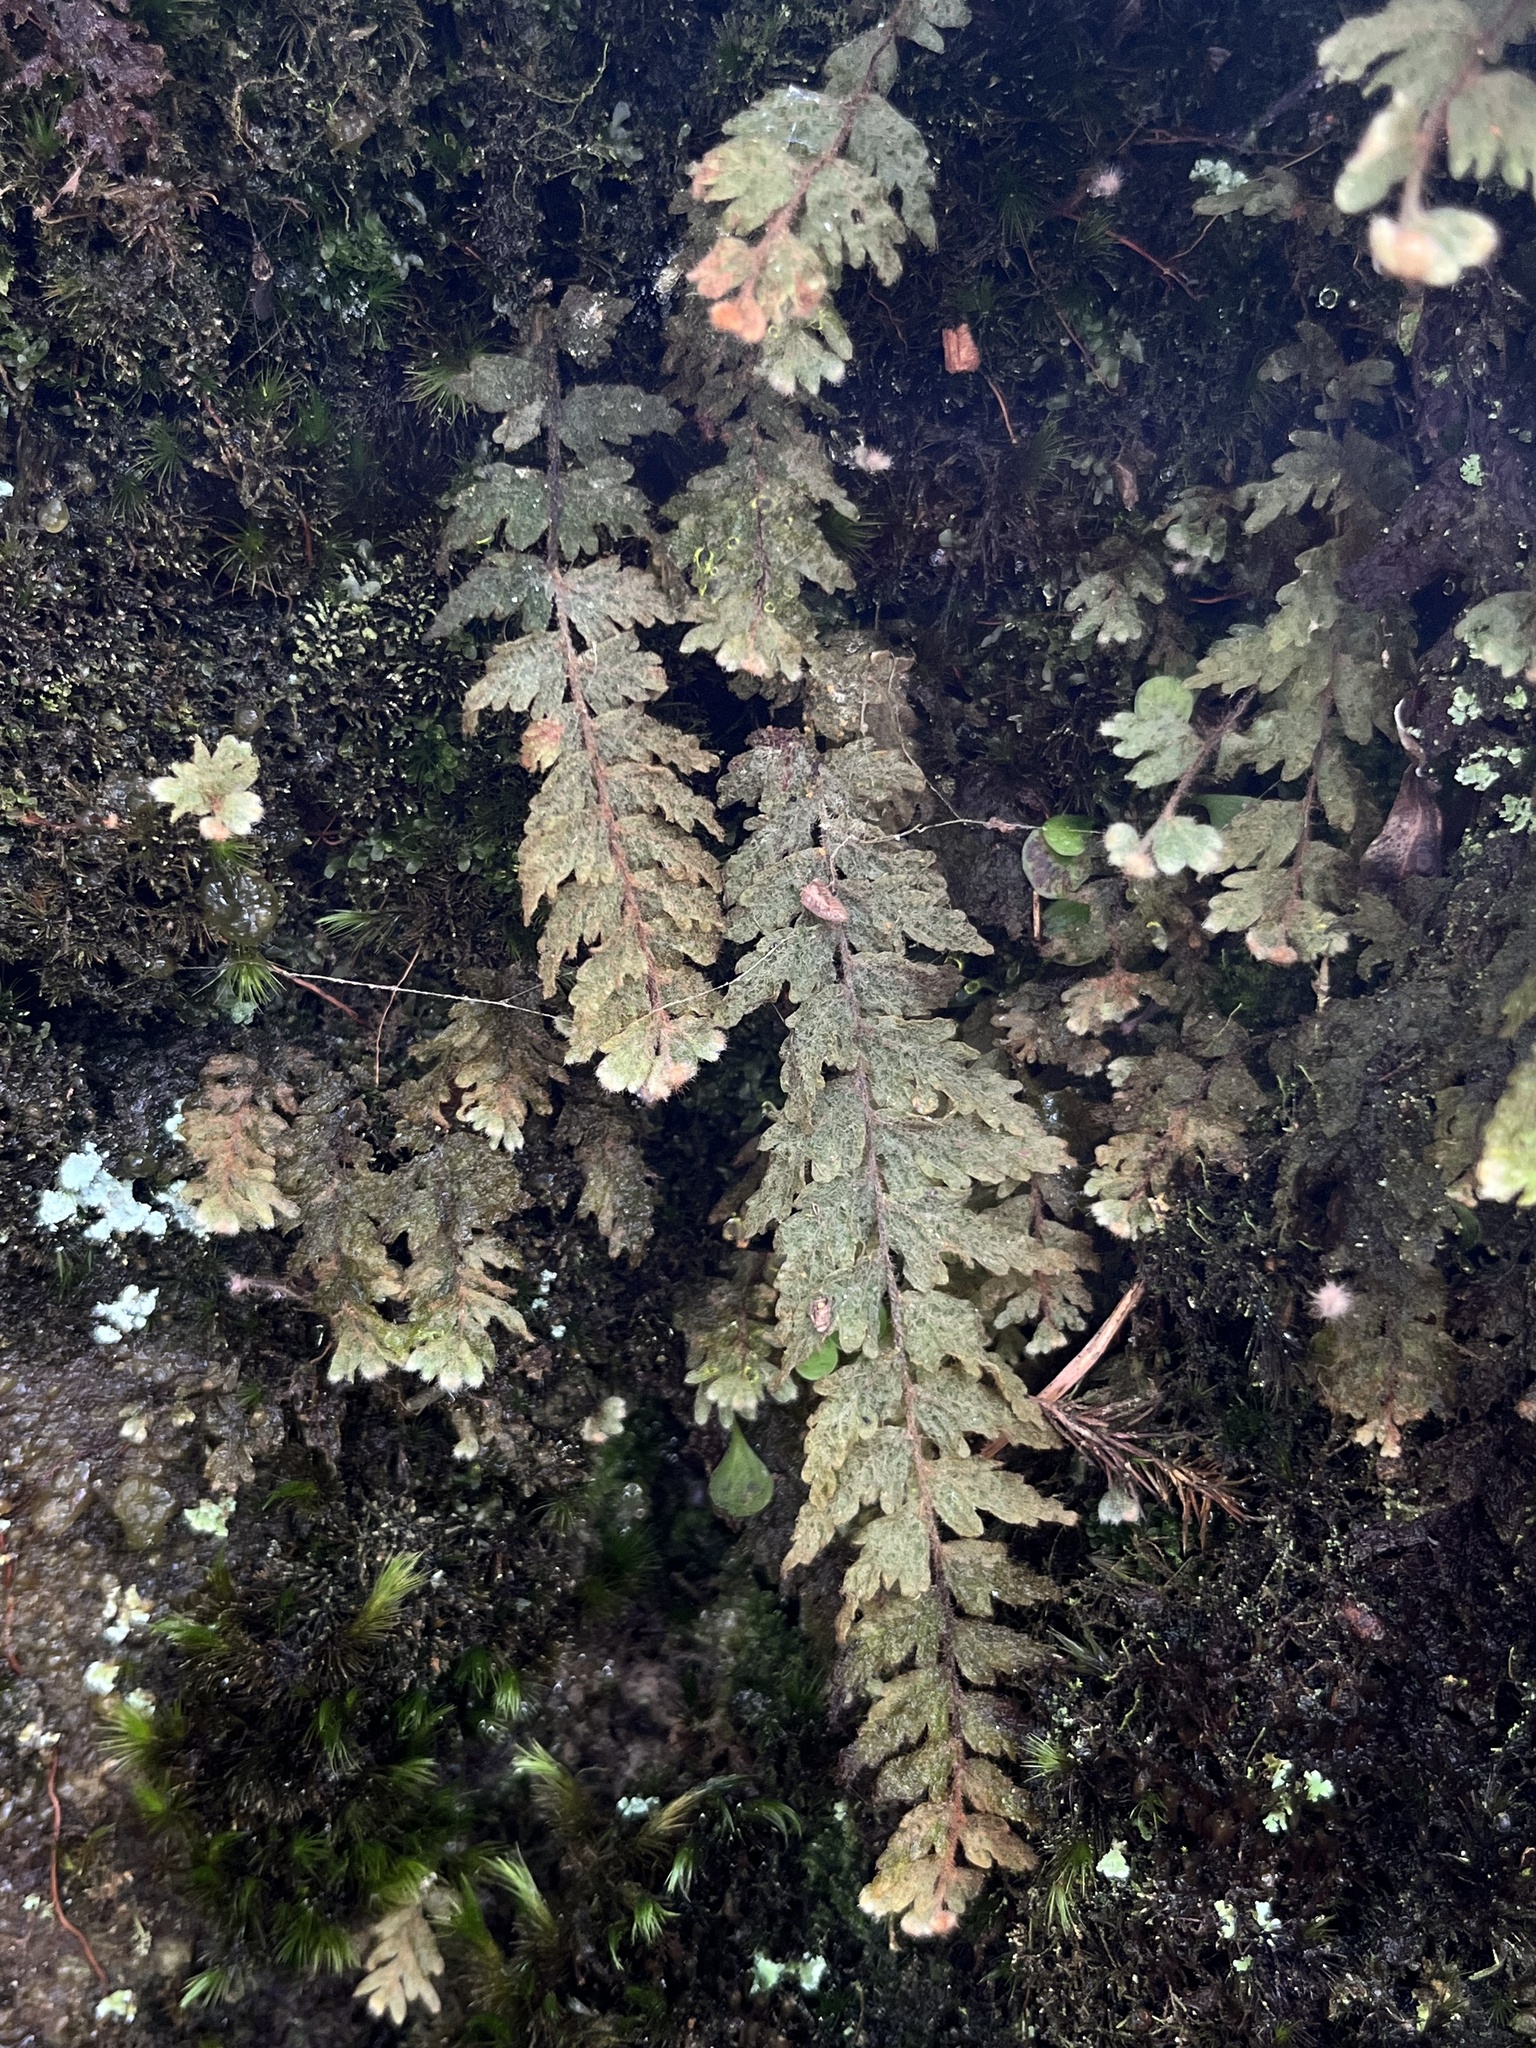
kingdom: Plantae
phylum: Tracheophyta
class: Polypodiopsida
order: Hymenophyllales
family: Hymenophyllaceae
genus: Hymenophyllum
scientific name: Hymenophyllum tomentosum
